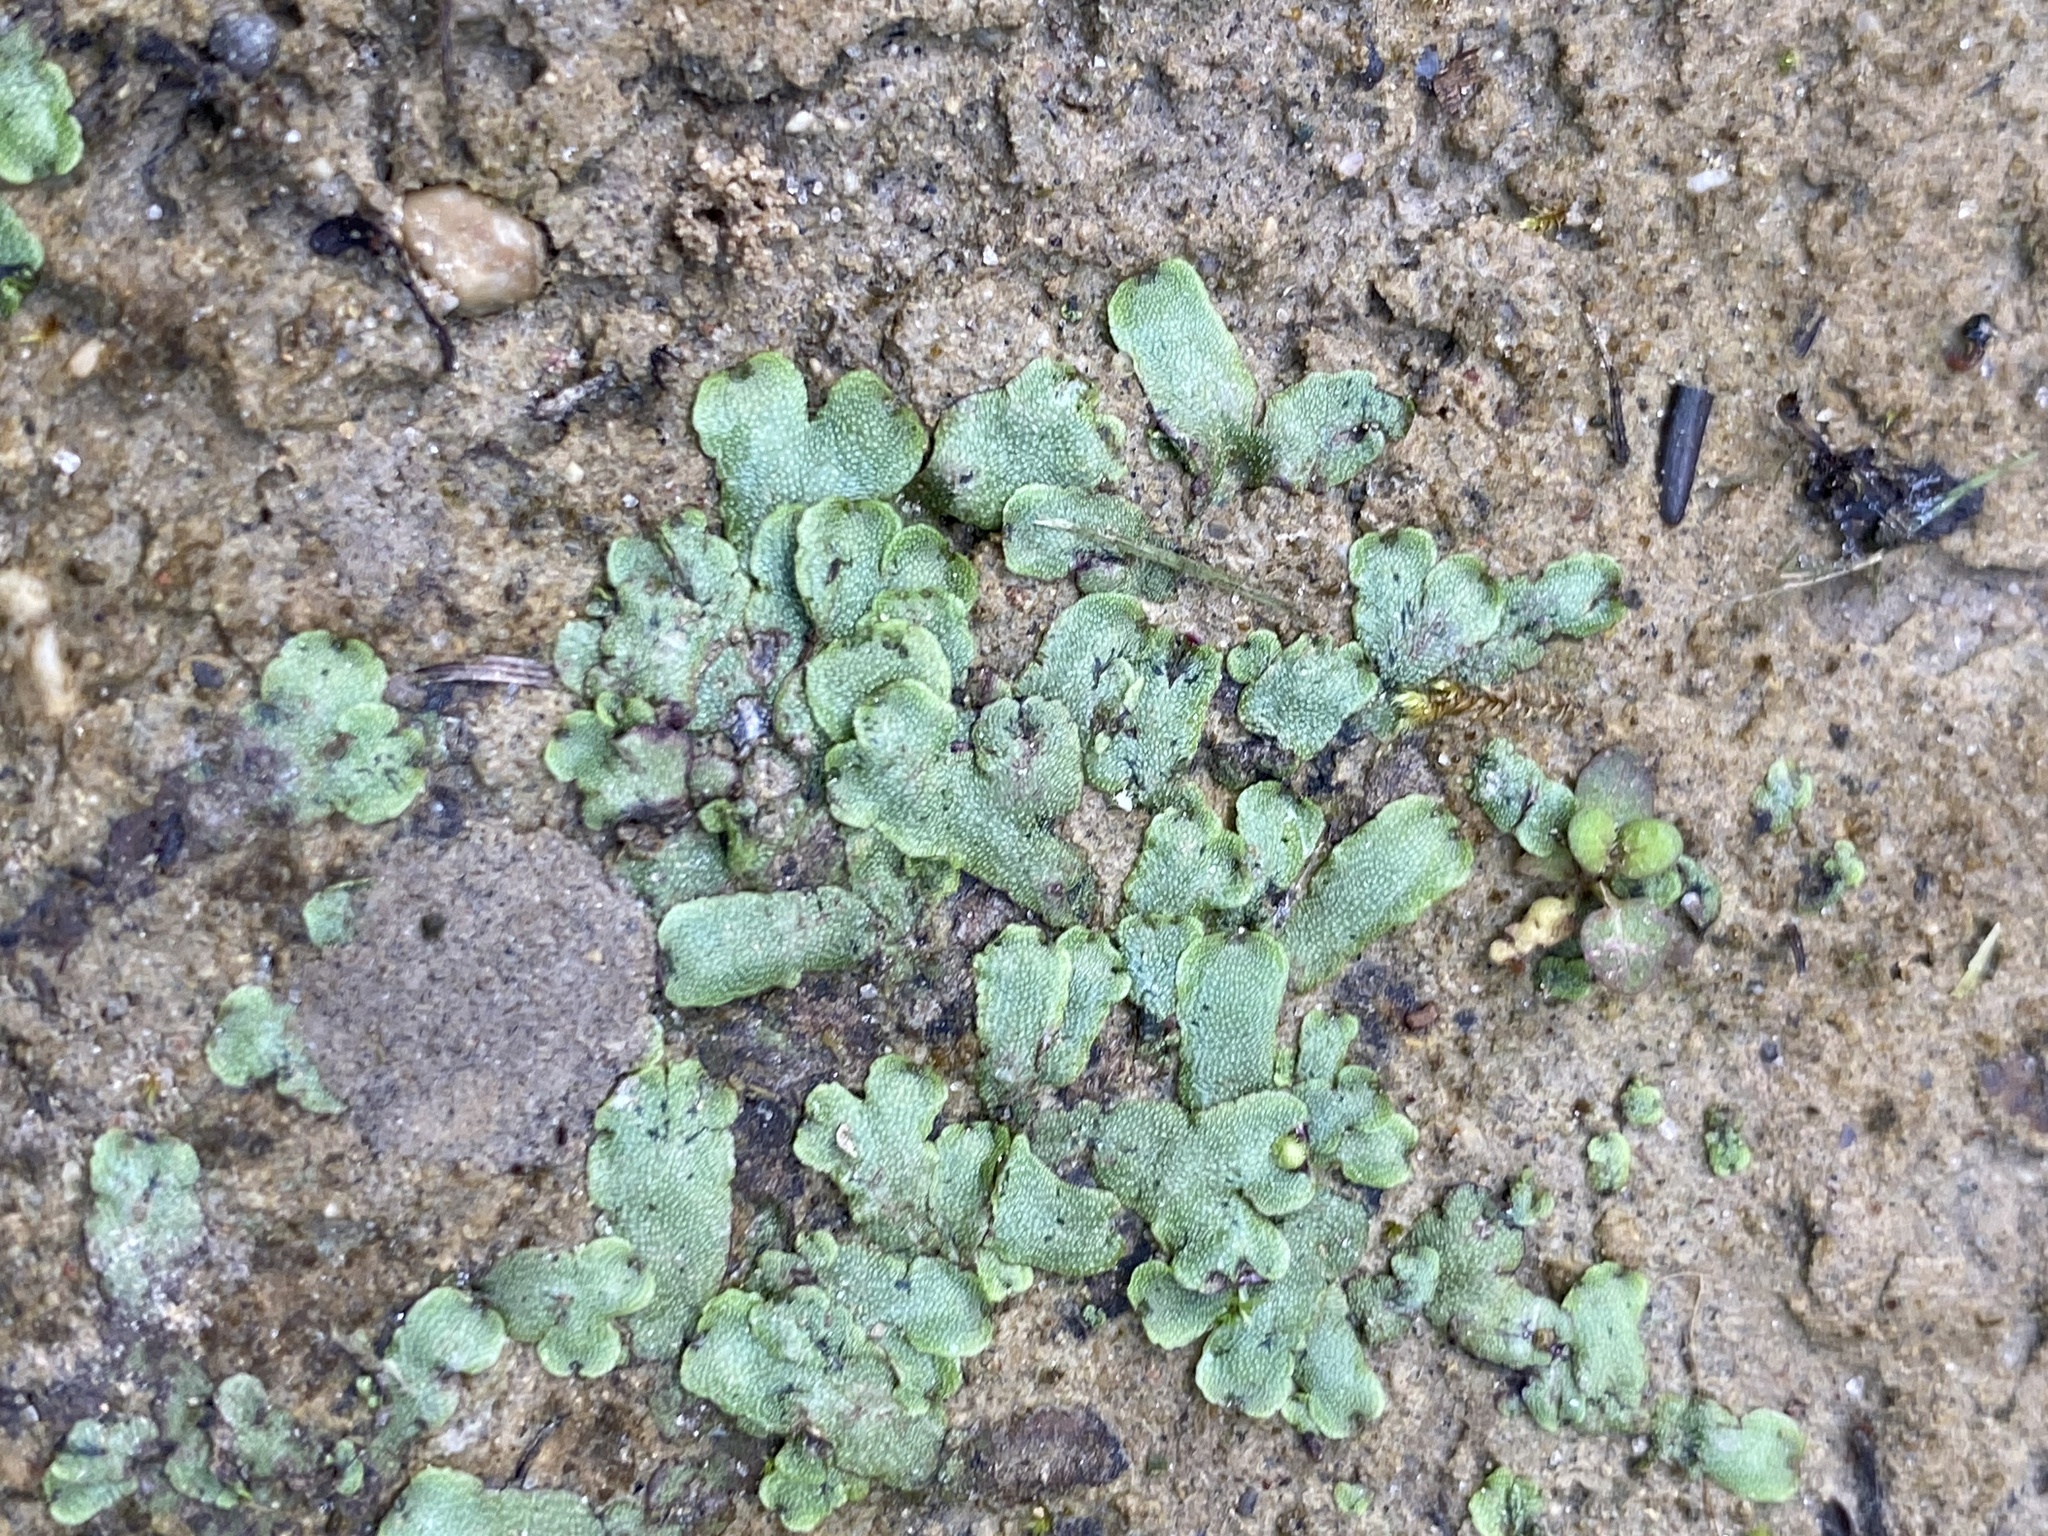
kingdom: Plantae
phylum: Marchantiophyta
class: Marchantiopsida
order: Marchantiales
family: Conocephalaceae
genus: Conocephalum
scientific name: Conocephalum salebrosum
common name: Cat-tongue liverwort
